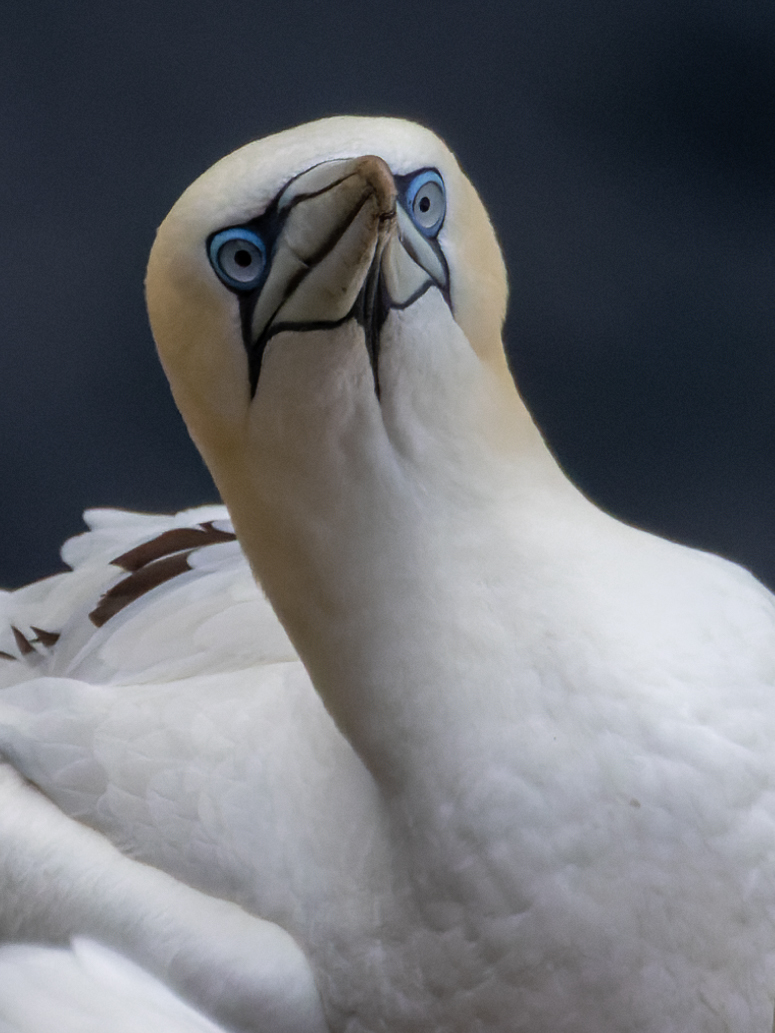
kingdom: Animalia
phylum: Chordata
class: Aves
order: Suliformes
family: Sulidae
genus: Morus
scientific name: Morus bassanus
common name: Northern gannet
